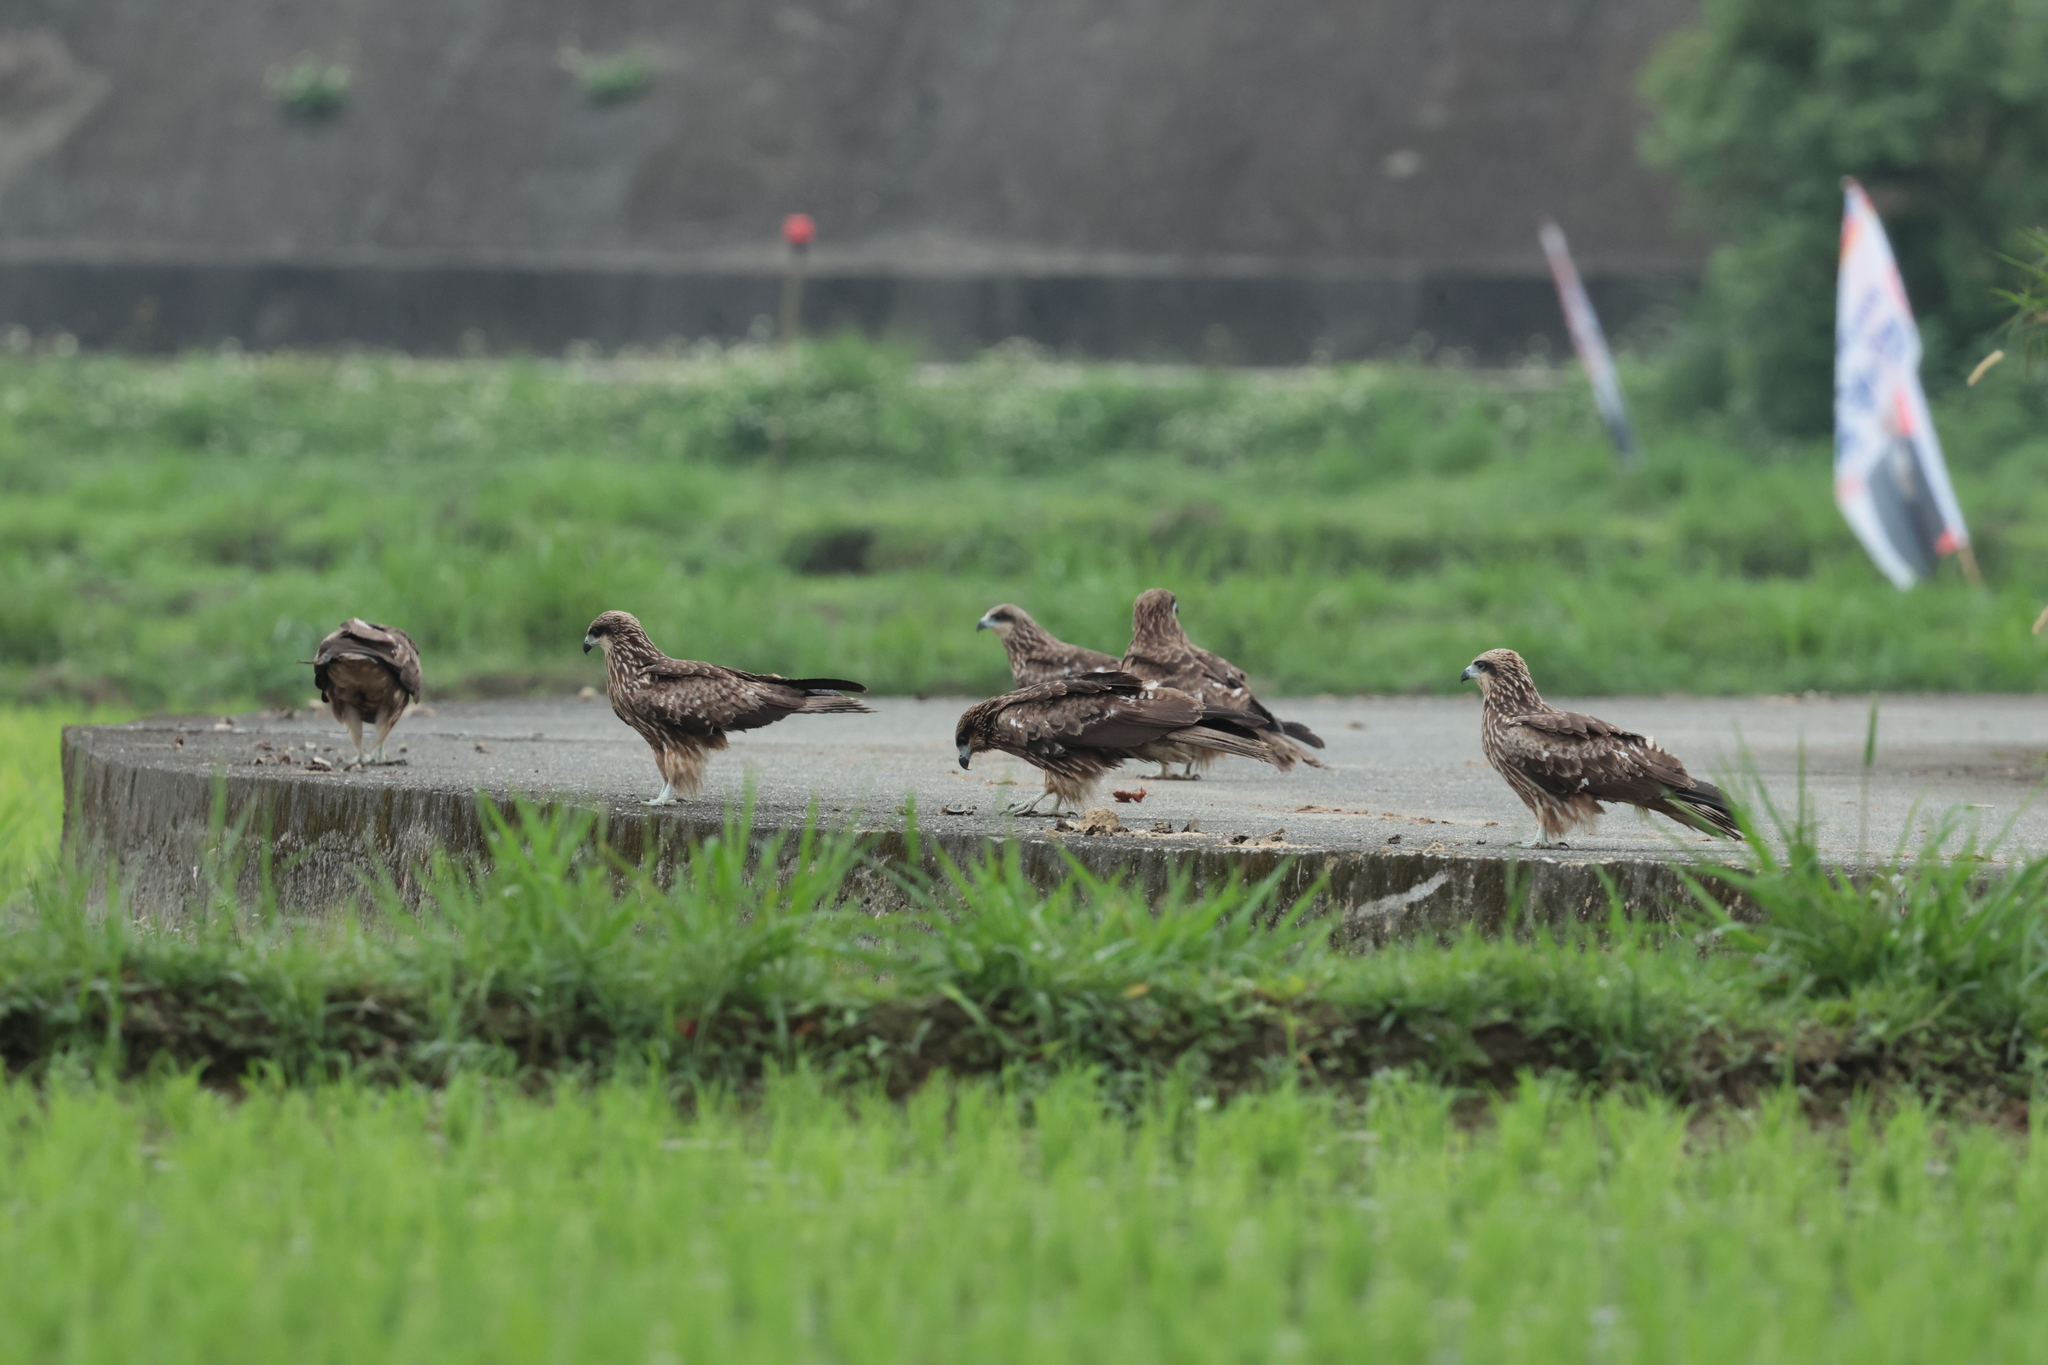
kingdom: Animalia
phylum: Chordata
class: Aves
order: Accipitriformes
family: Accipitridae
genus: Milvus
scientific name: Milvus migrans
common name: Black kite
